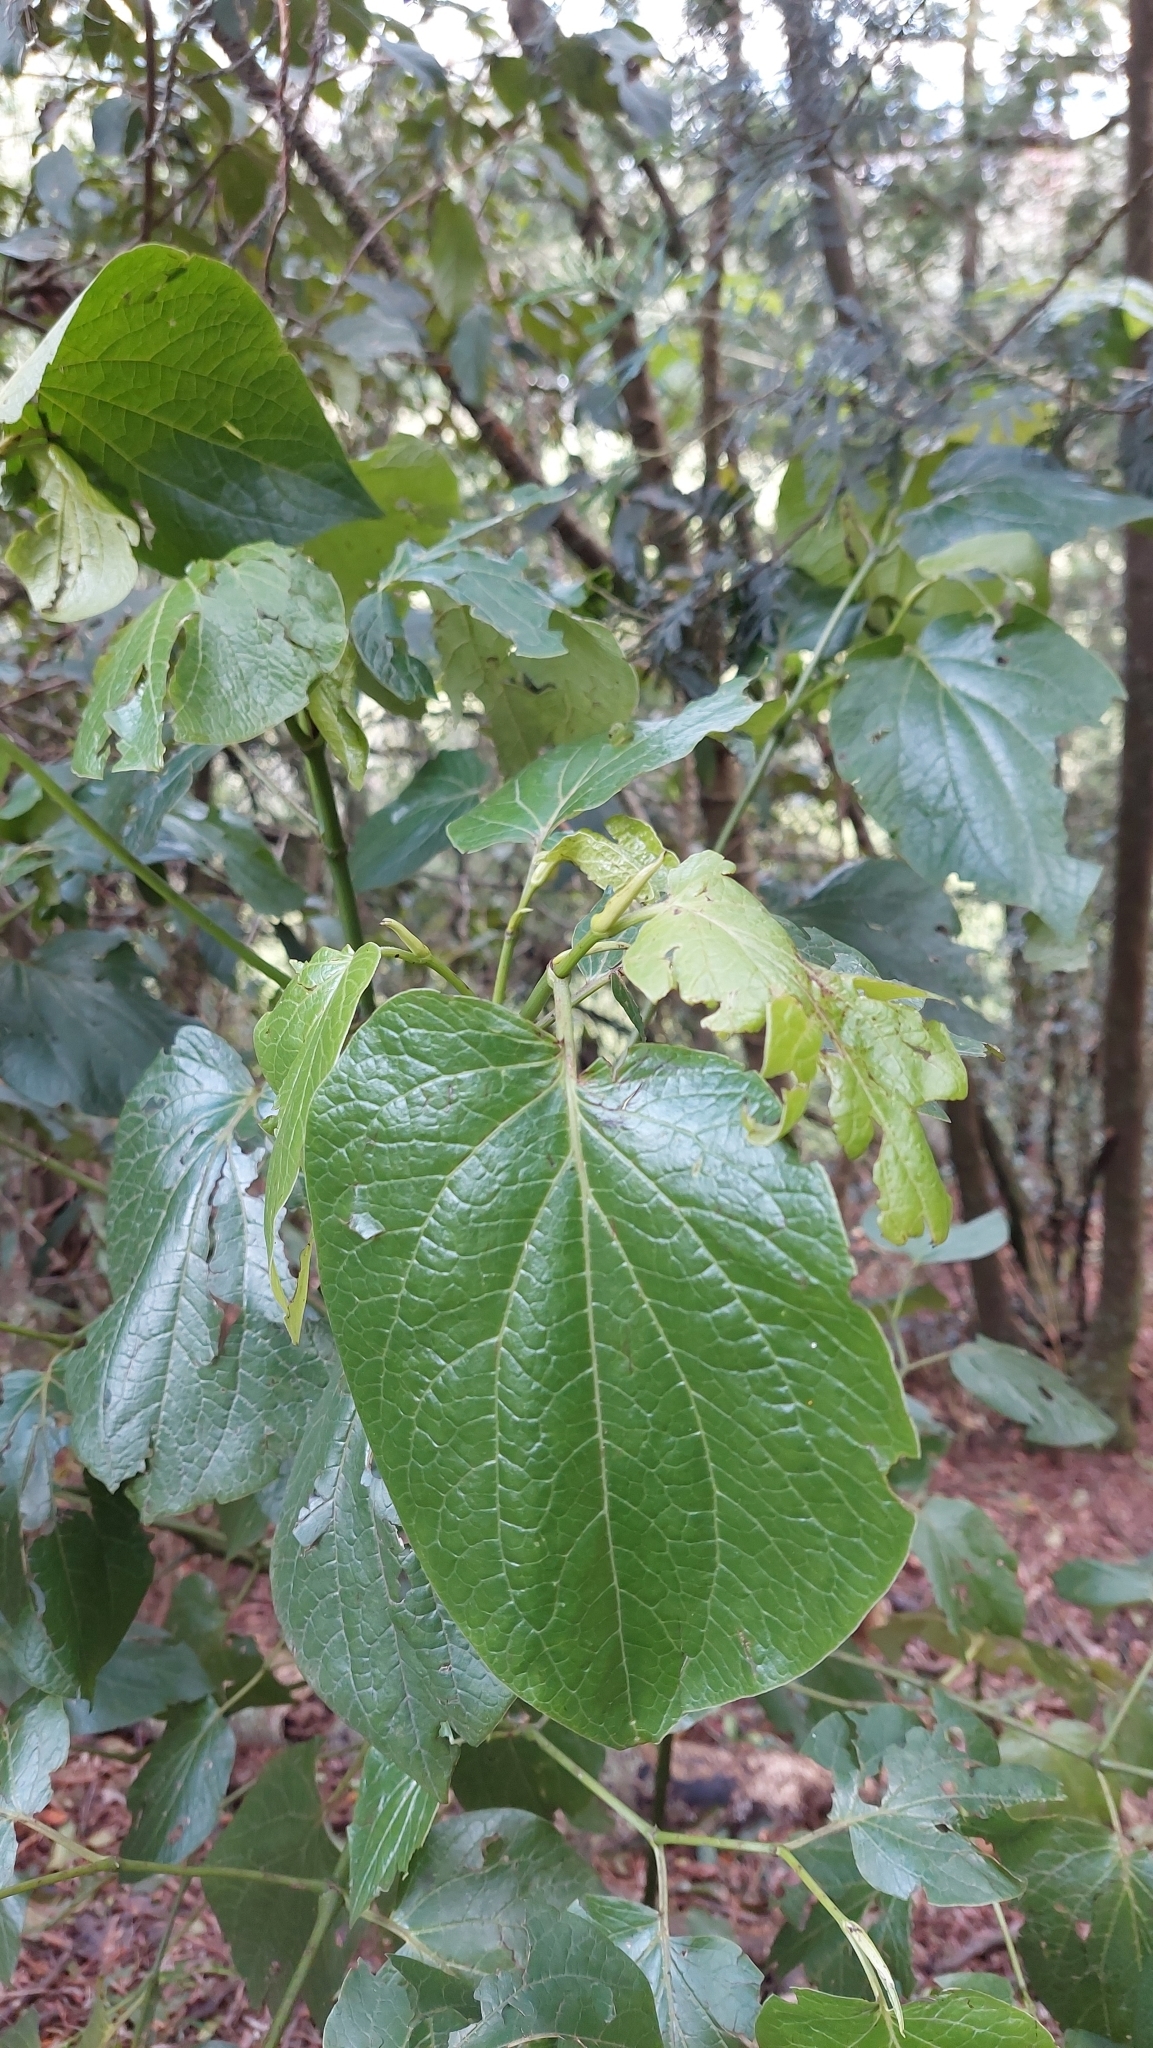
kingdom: Plantae
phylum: Tracheophyta
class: Magnoliopsida
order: Piperales
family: Piperaceae
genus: Piper
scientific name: Piper barbatum
